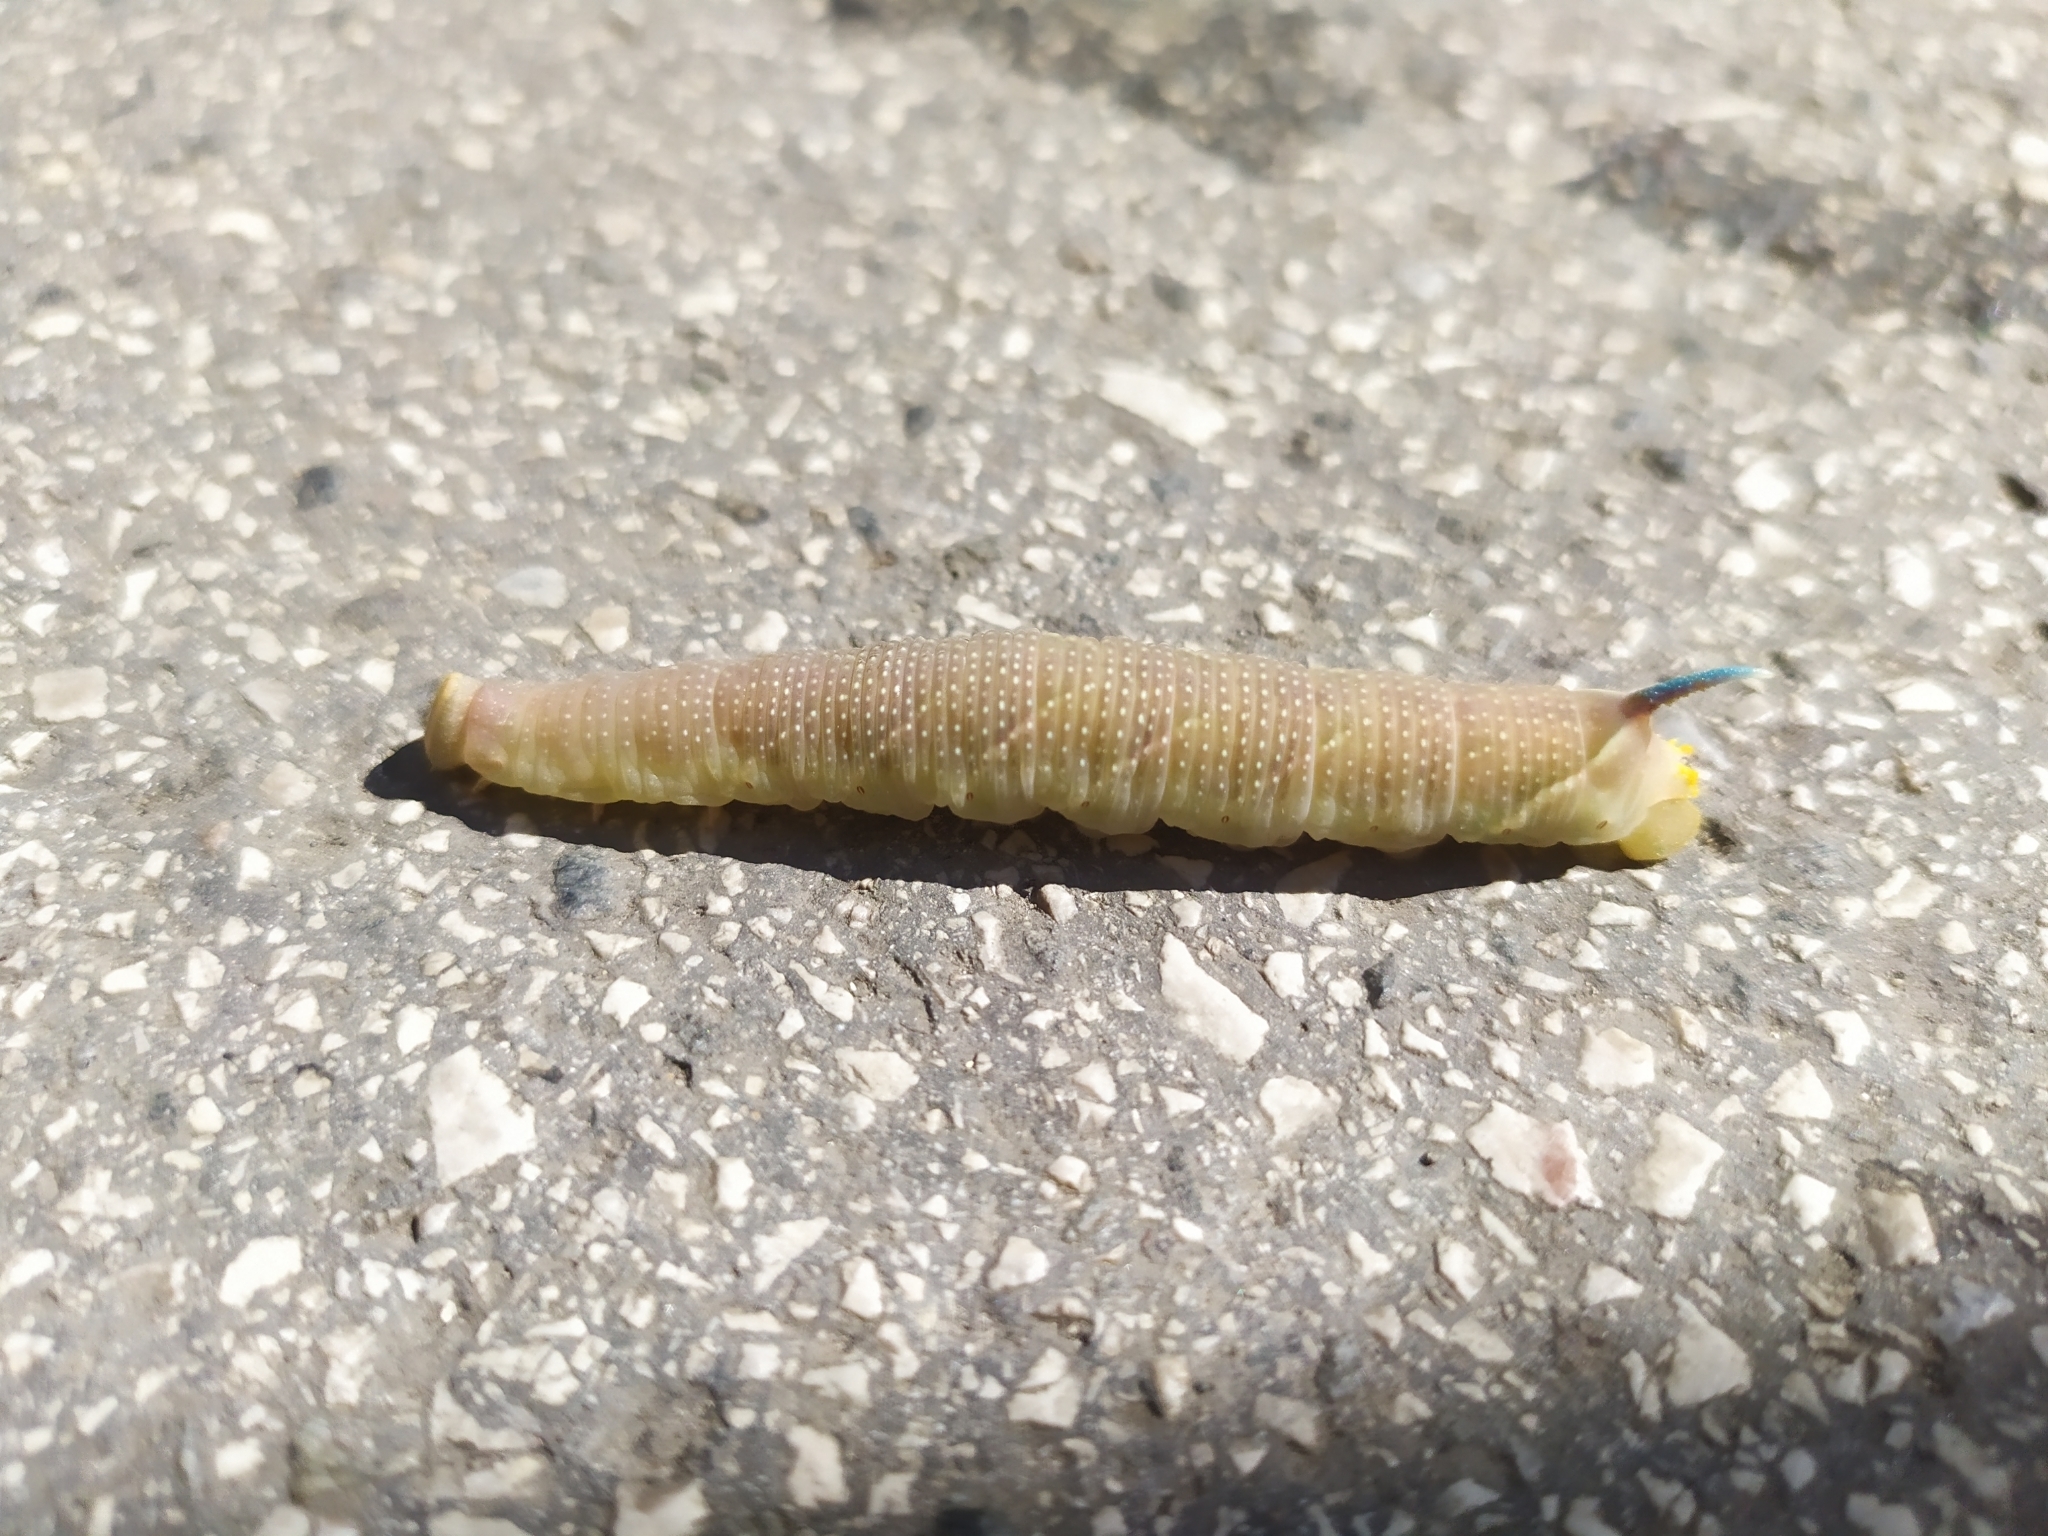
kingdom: Animalia
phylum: Arthropoda
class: Insecta
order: Lepidoptera
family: Sphingidae
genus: Mimas
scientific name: Mimas tiliae
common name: Lime hawk-moth
